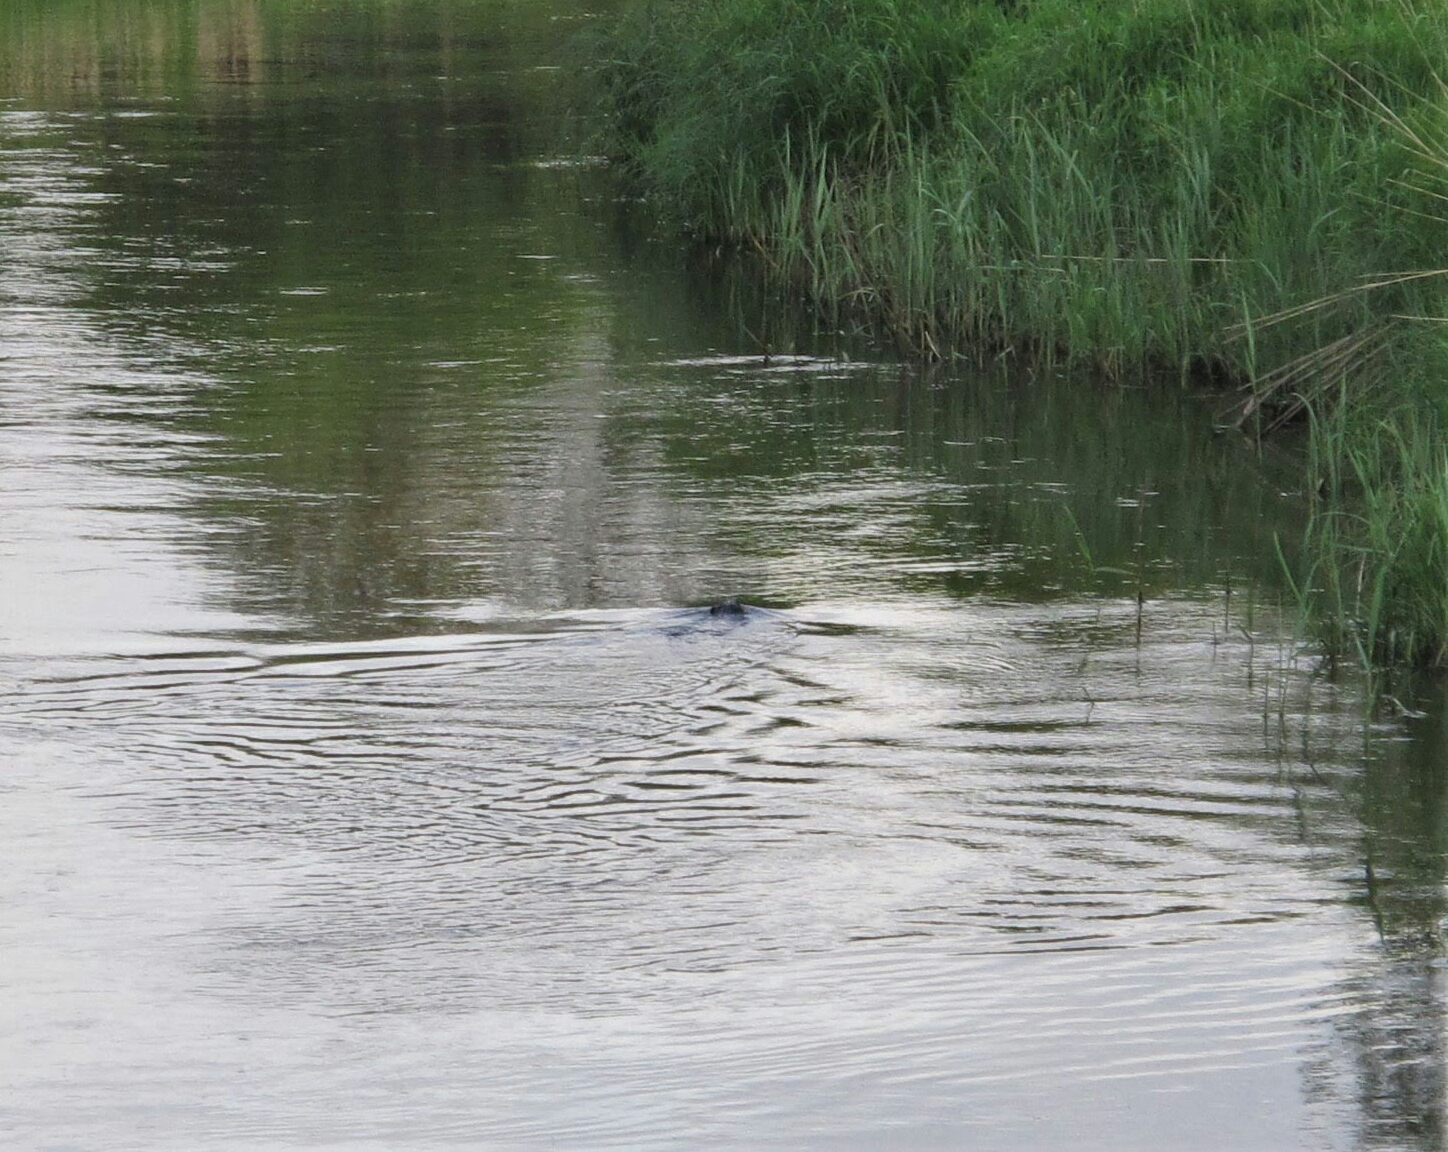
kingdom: Animalia
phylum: Chordata
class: Mammalia
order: Rodentia
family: Castoridae
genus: Castor
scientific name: Castor fiber
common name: Eurasian beaver
